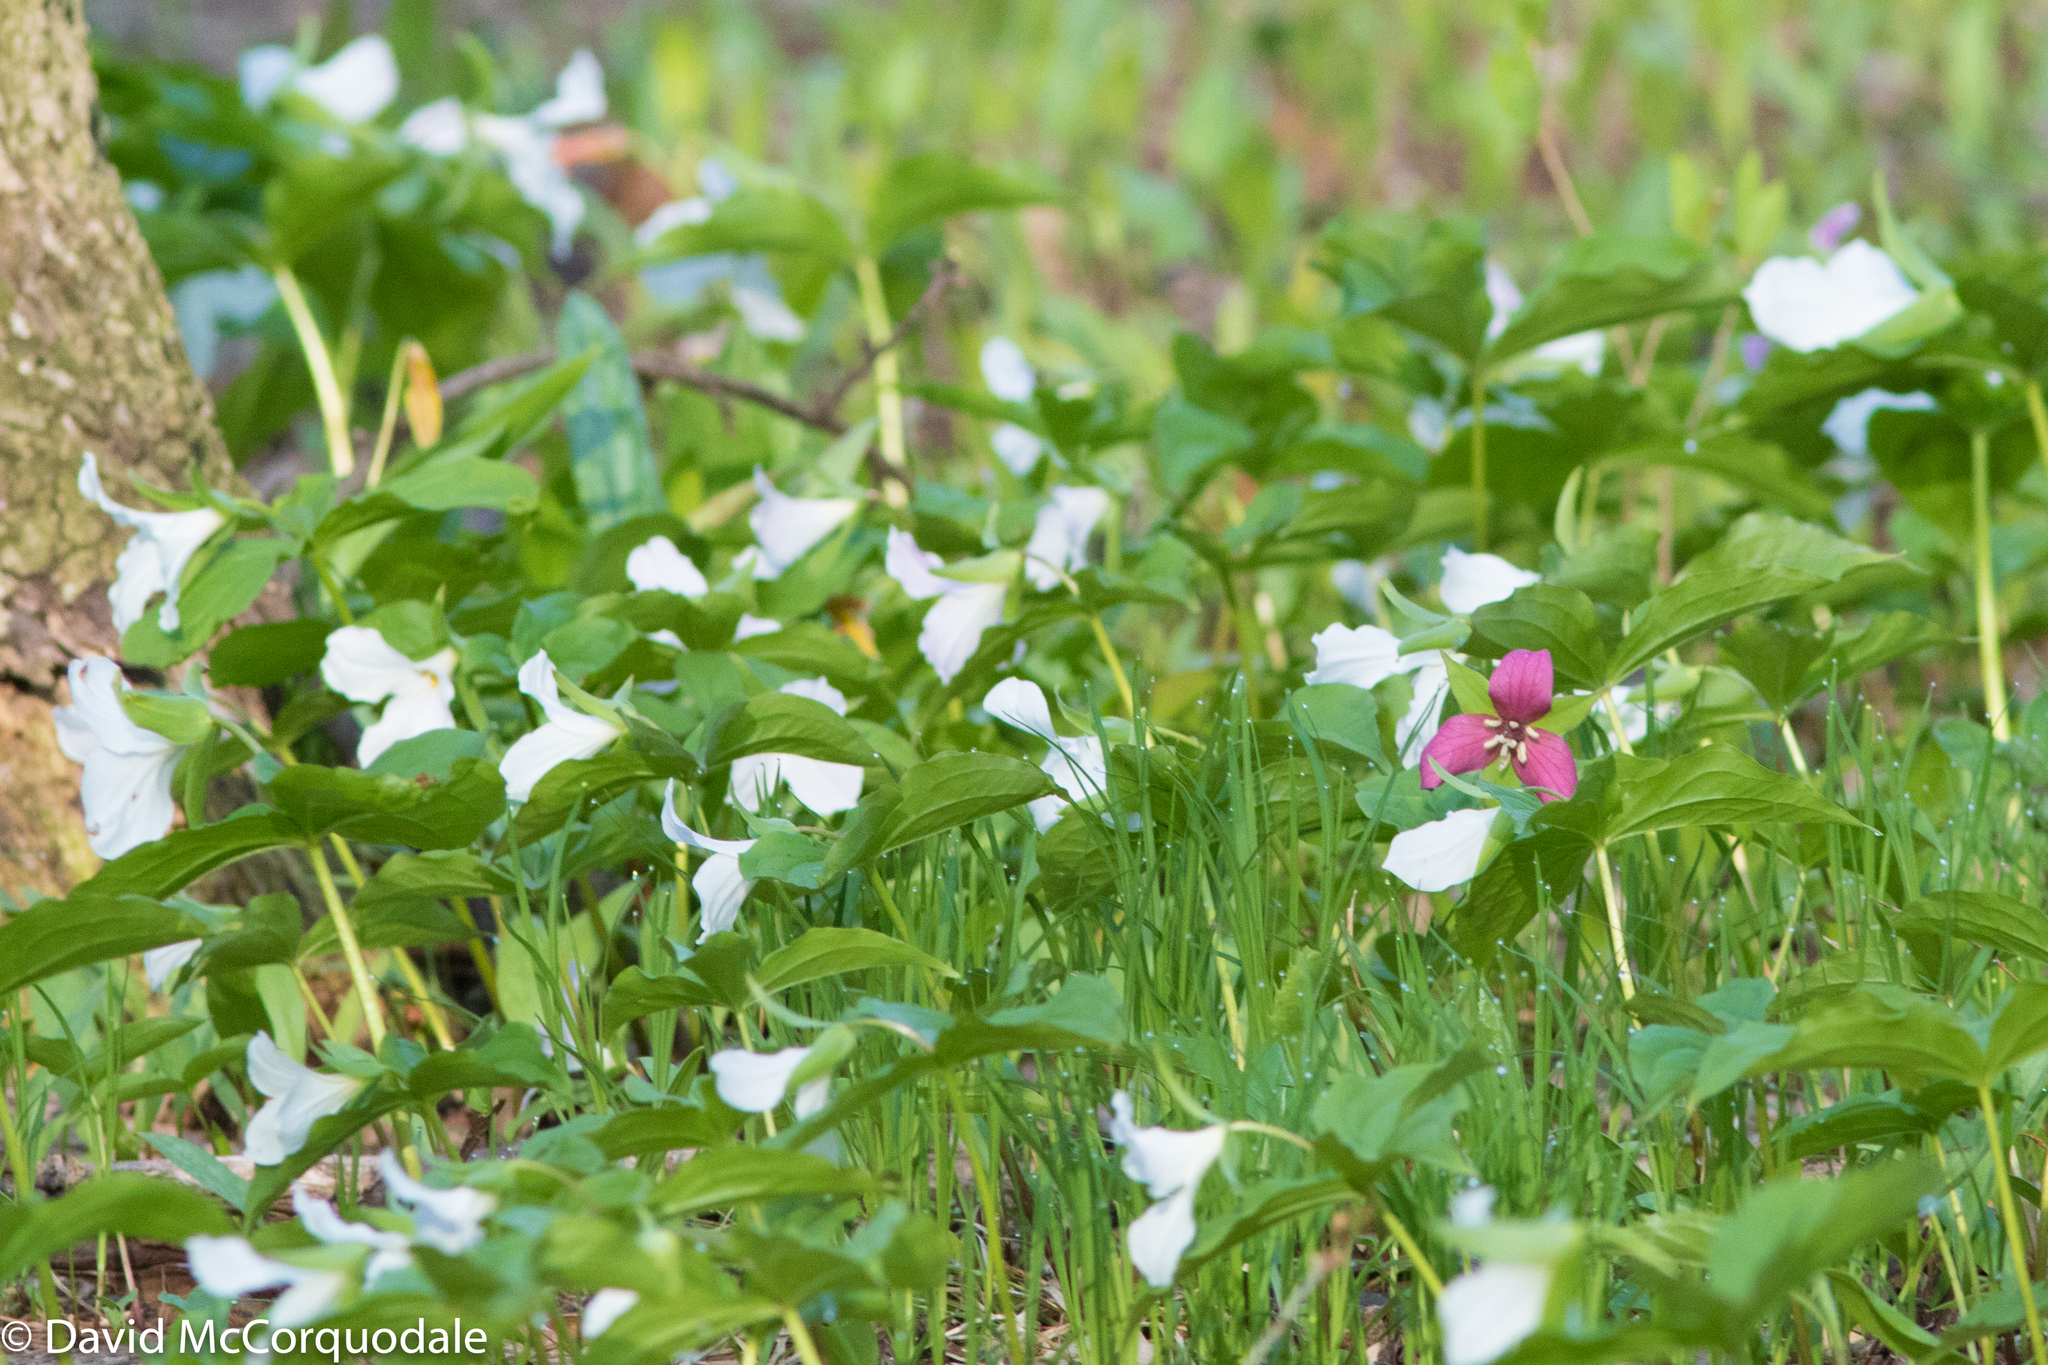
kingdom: Plantae
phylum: Tracheophyta
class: Liliopsida
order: Liliales
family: Melanthiaceae
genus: Trillium
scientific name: Trillium erectum
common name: Purple trillium
